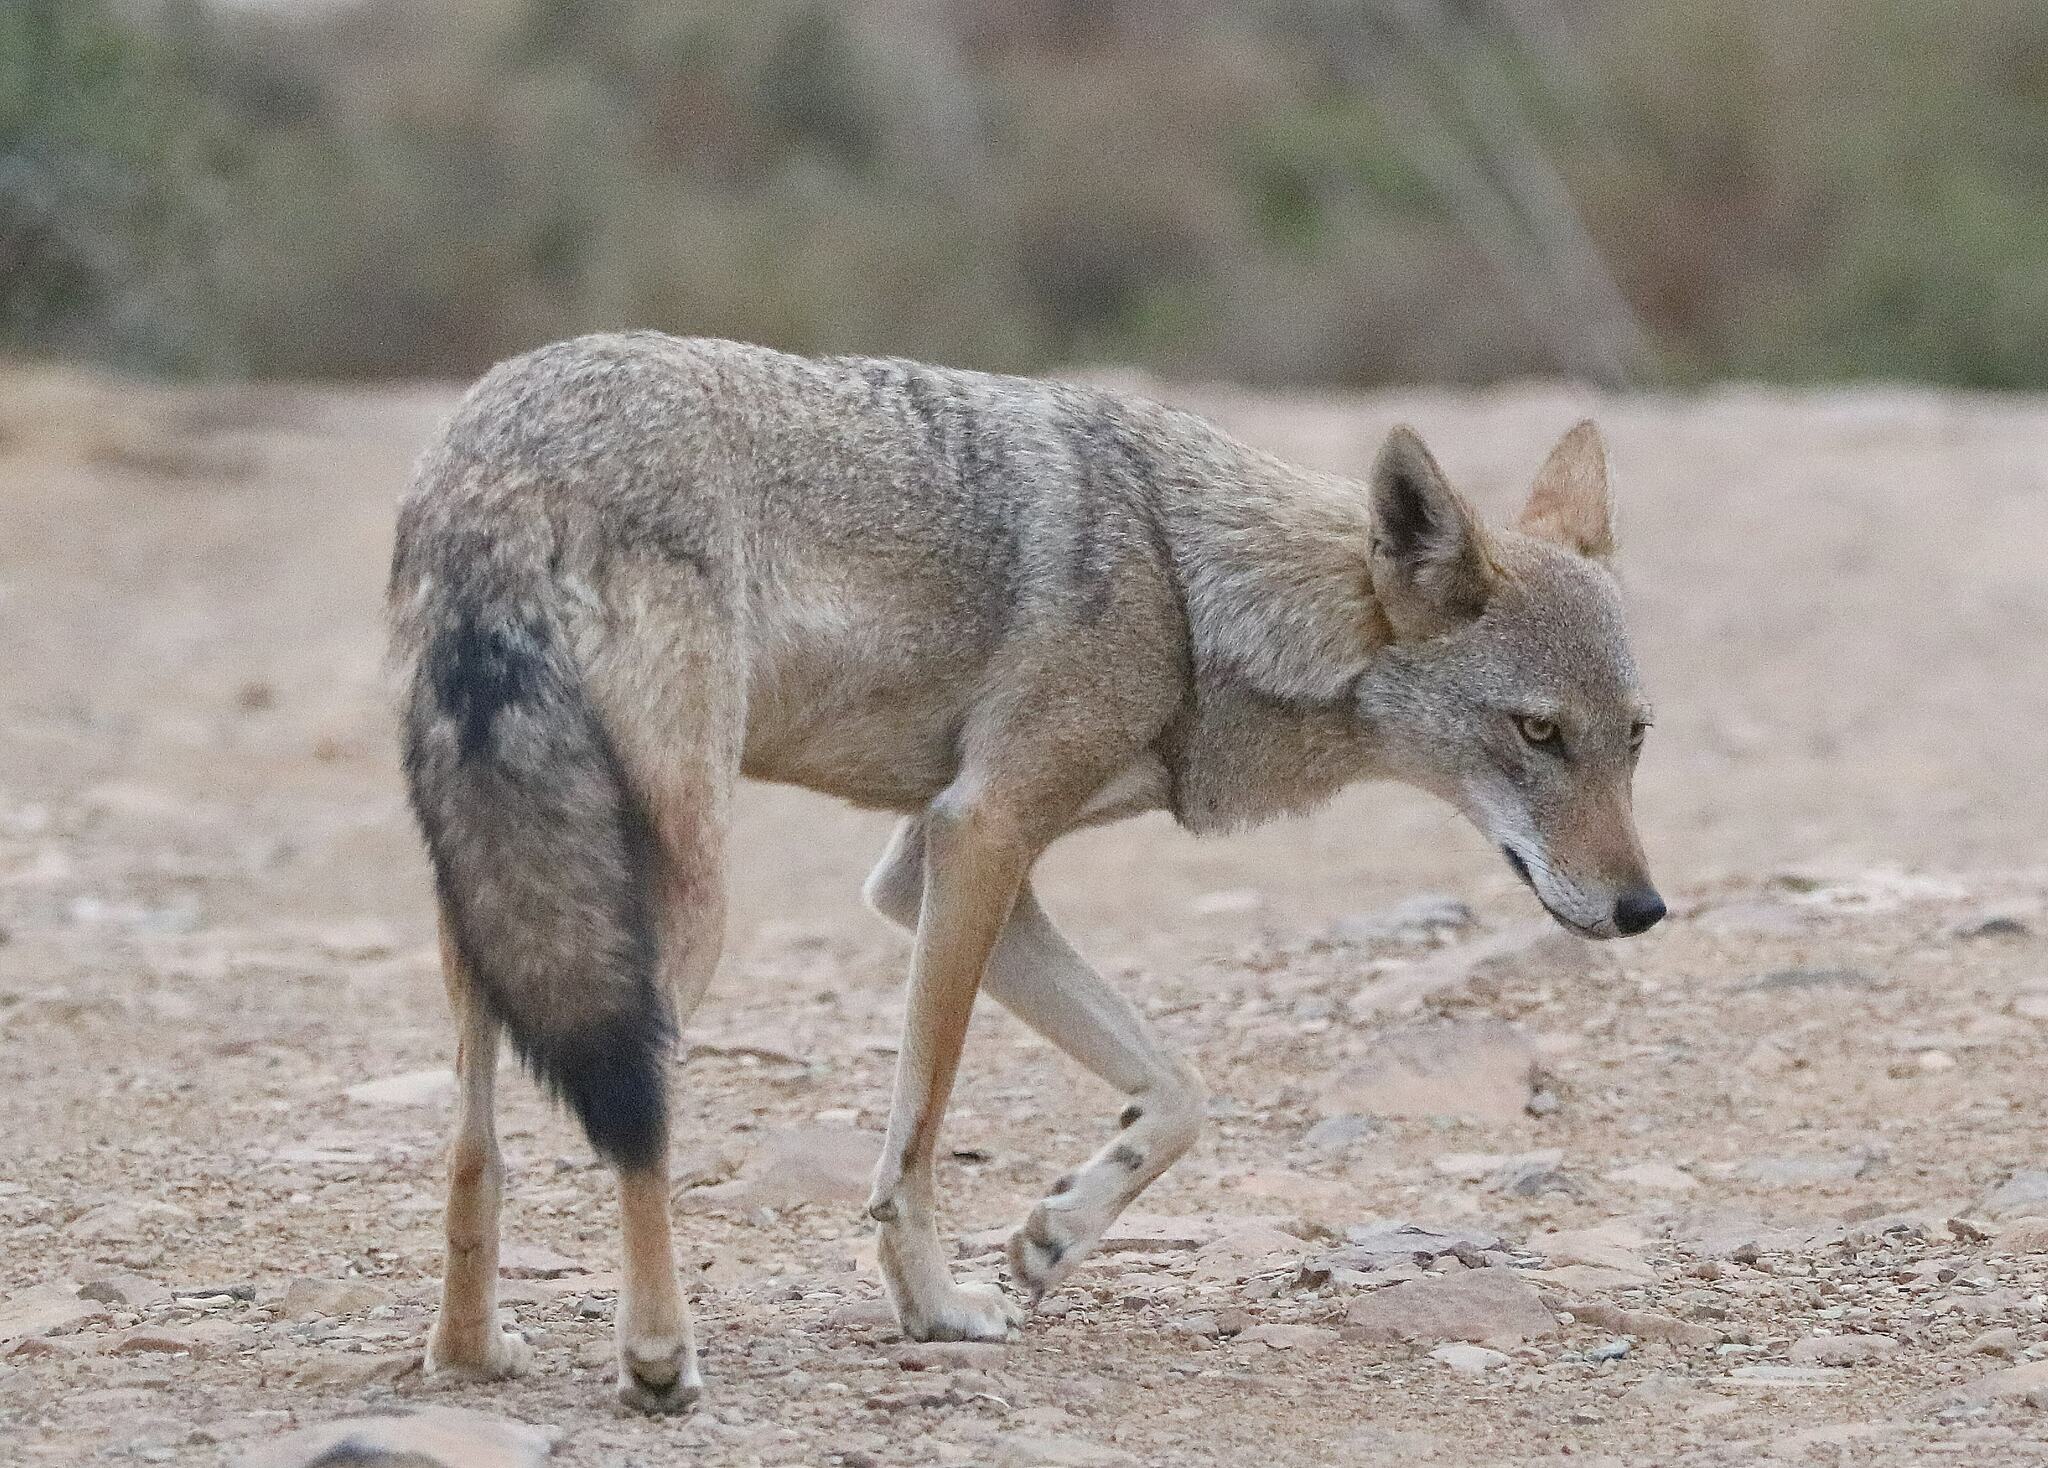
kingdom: Animalia
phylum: Chordata
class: Mammalia
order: Carnivora
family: Canidae
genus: Canis
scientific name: Canis lupaster
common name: African golden wolf
